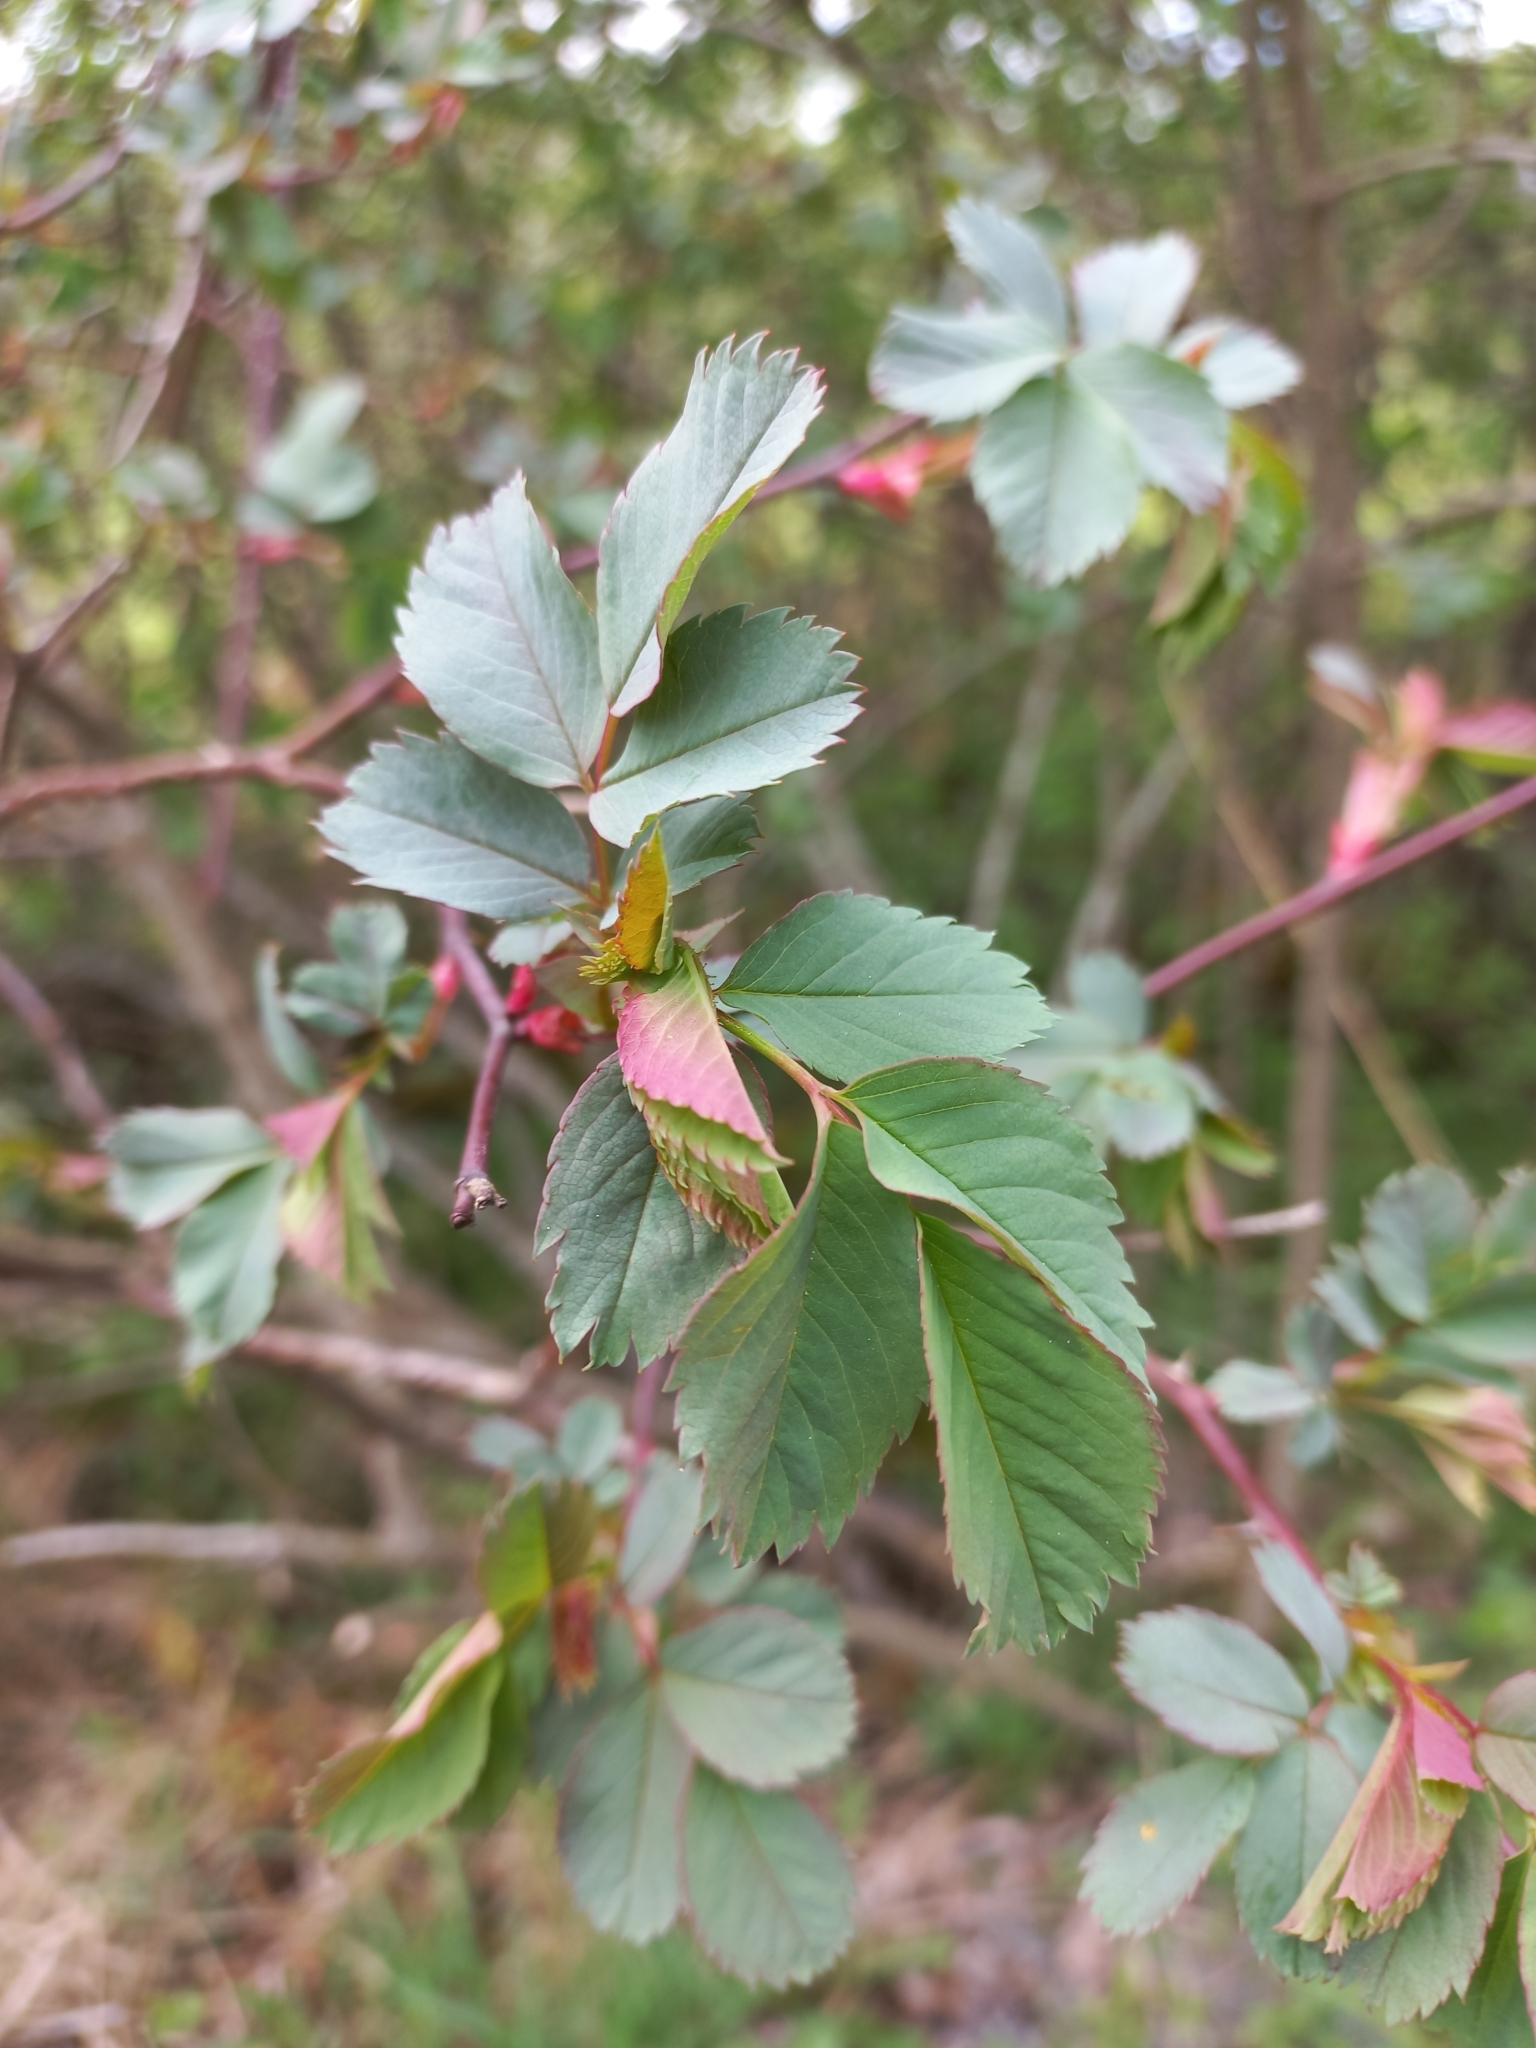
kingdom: Plantae
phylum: Tracheophyta
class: Magnoliopsida
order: Rosales
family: Rosaceae
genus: Rosa
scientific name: Rosa glauca
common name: Redleaf rose
